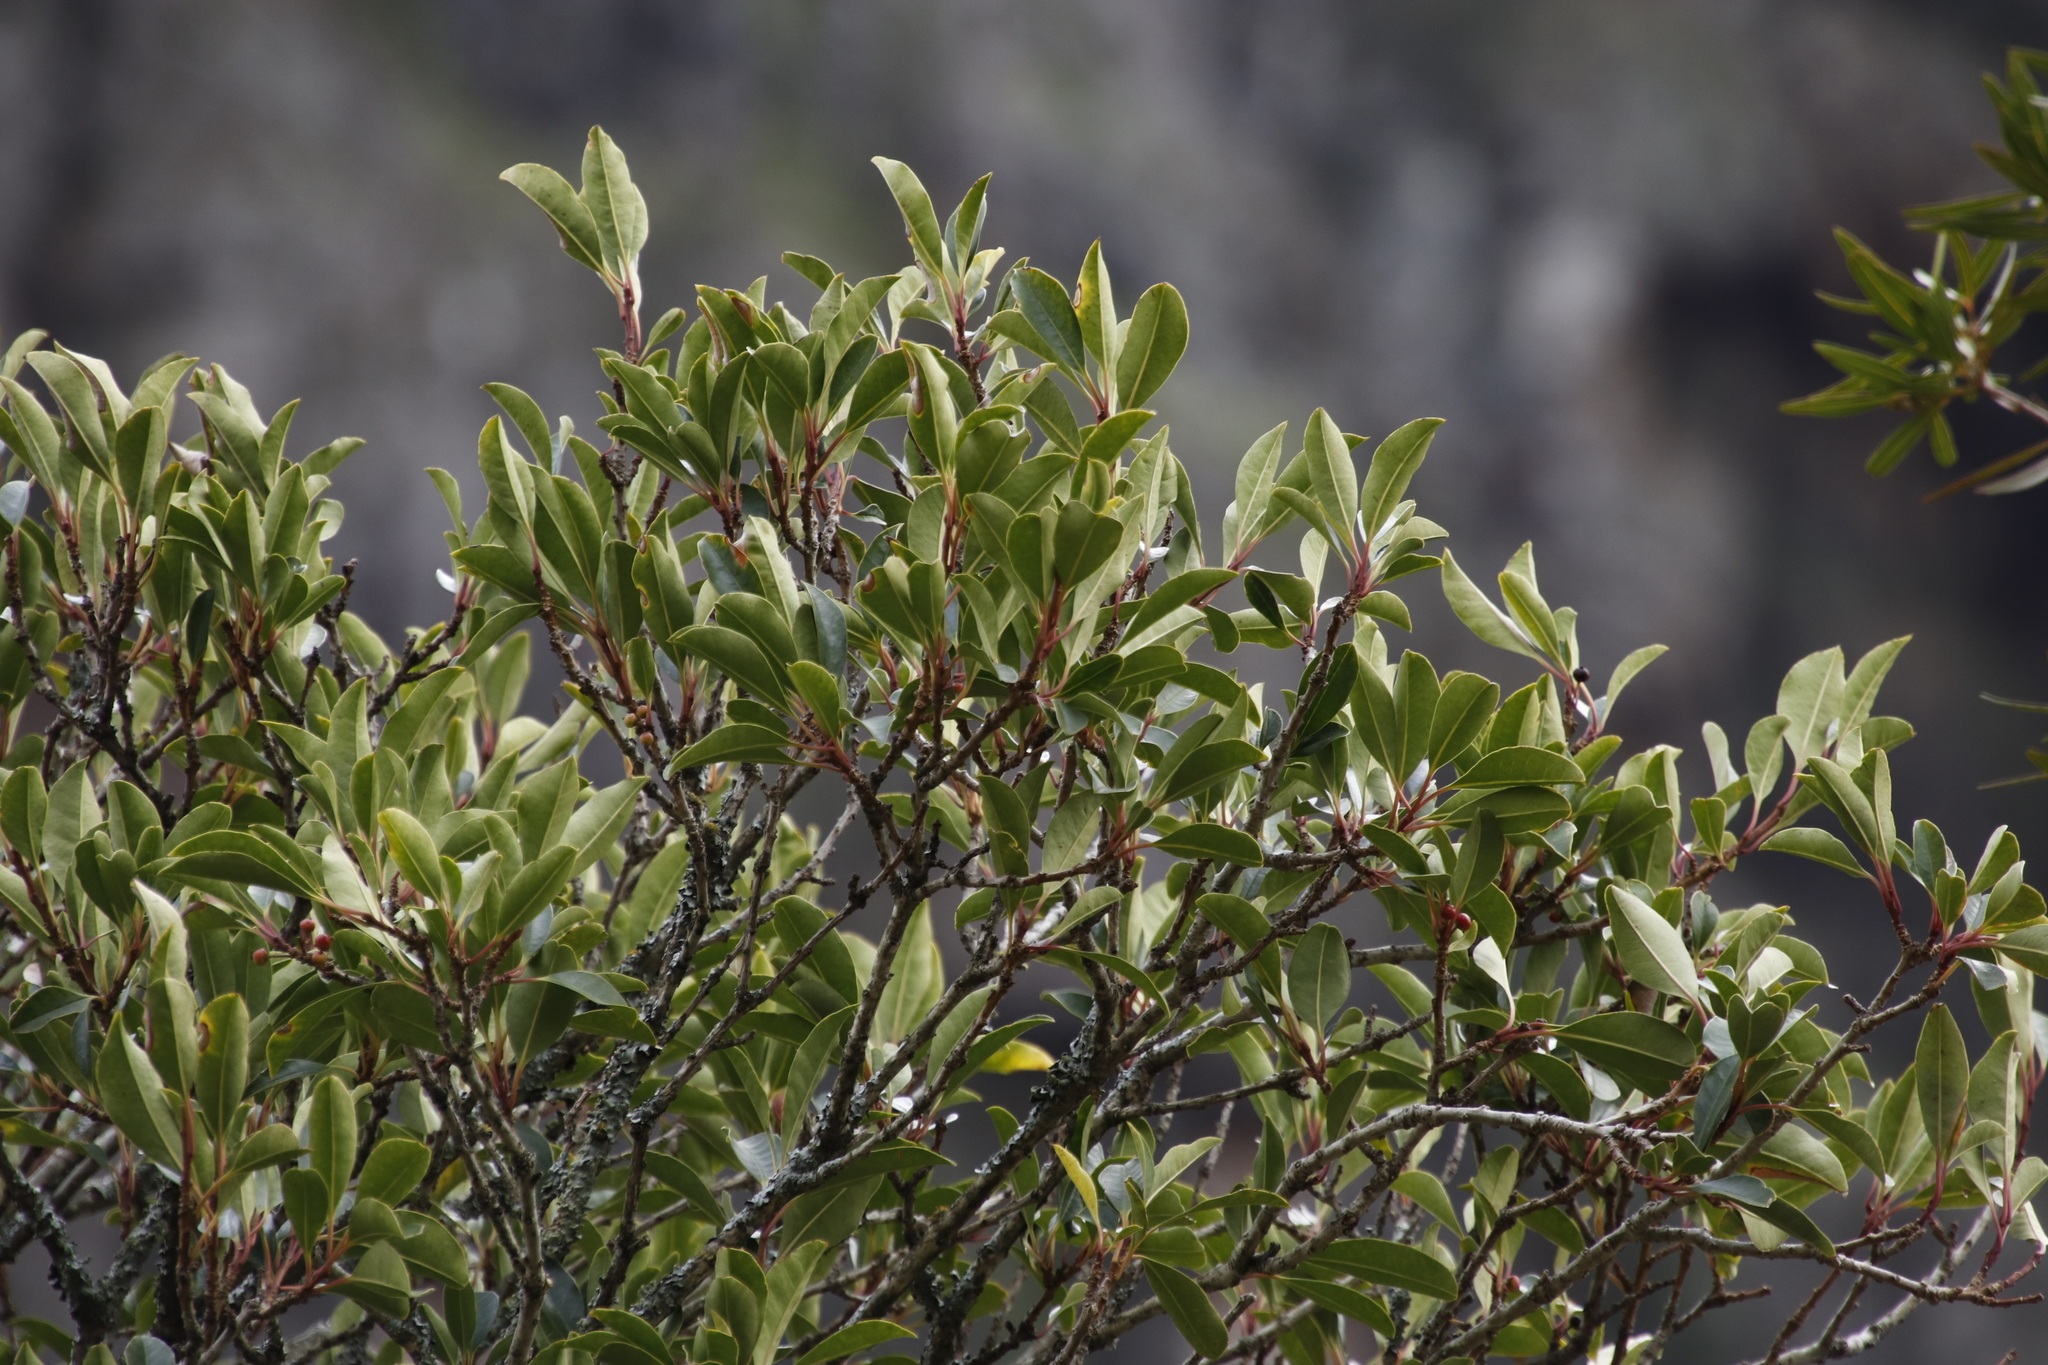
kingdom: Plantae
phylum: Tracheophyta
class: Magnoliopsida
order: Aquifoliales
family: Aquifoliaceae
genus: Ilex
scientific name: Ilex mitis
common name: African holly
